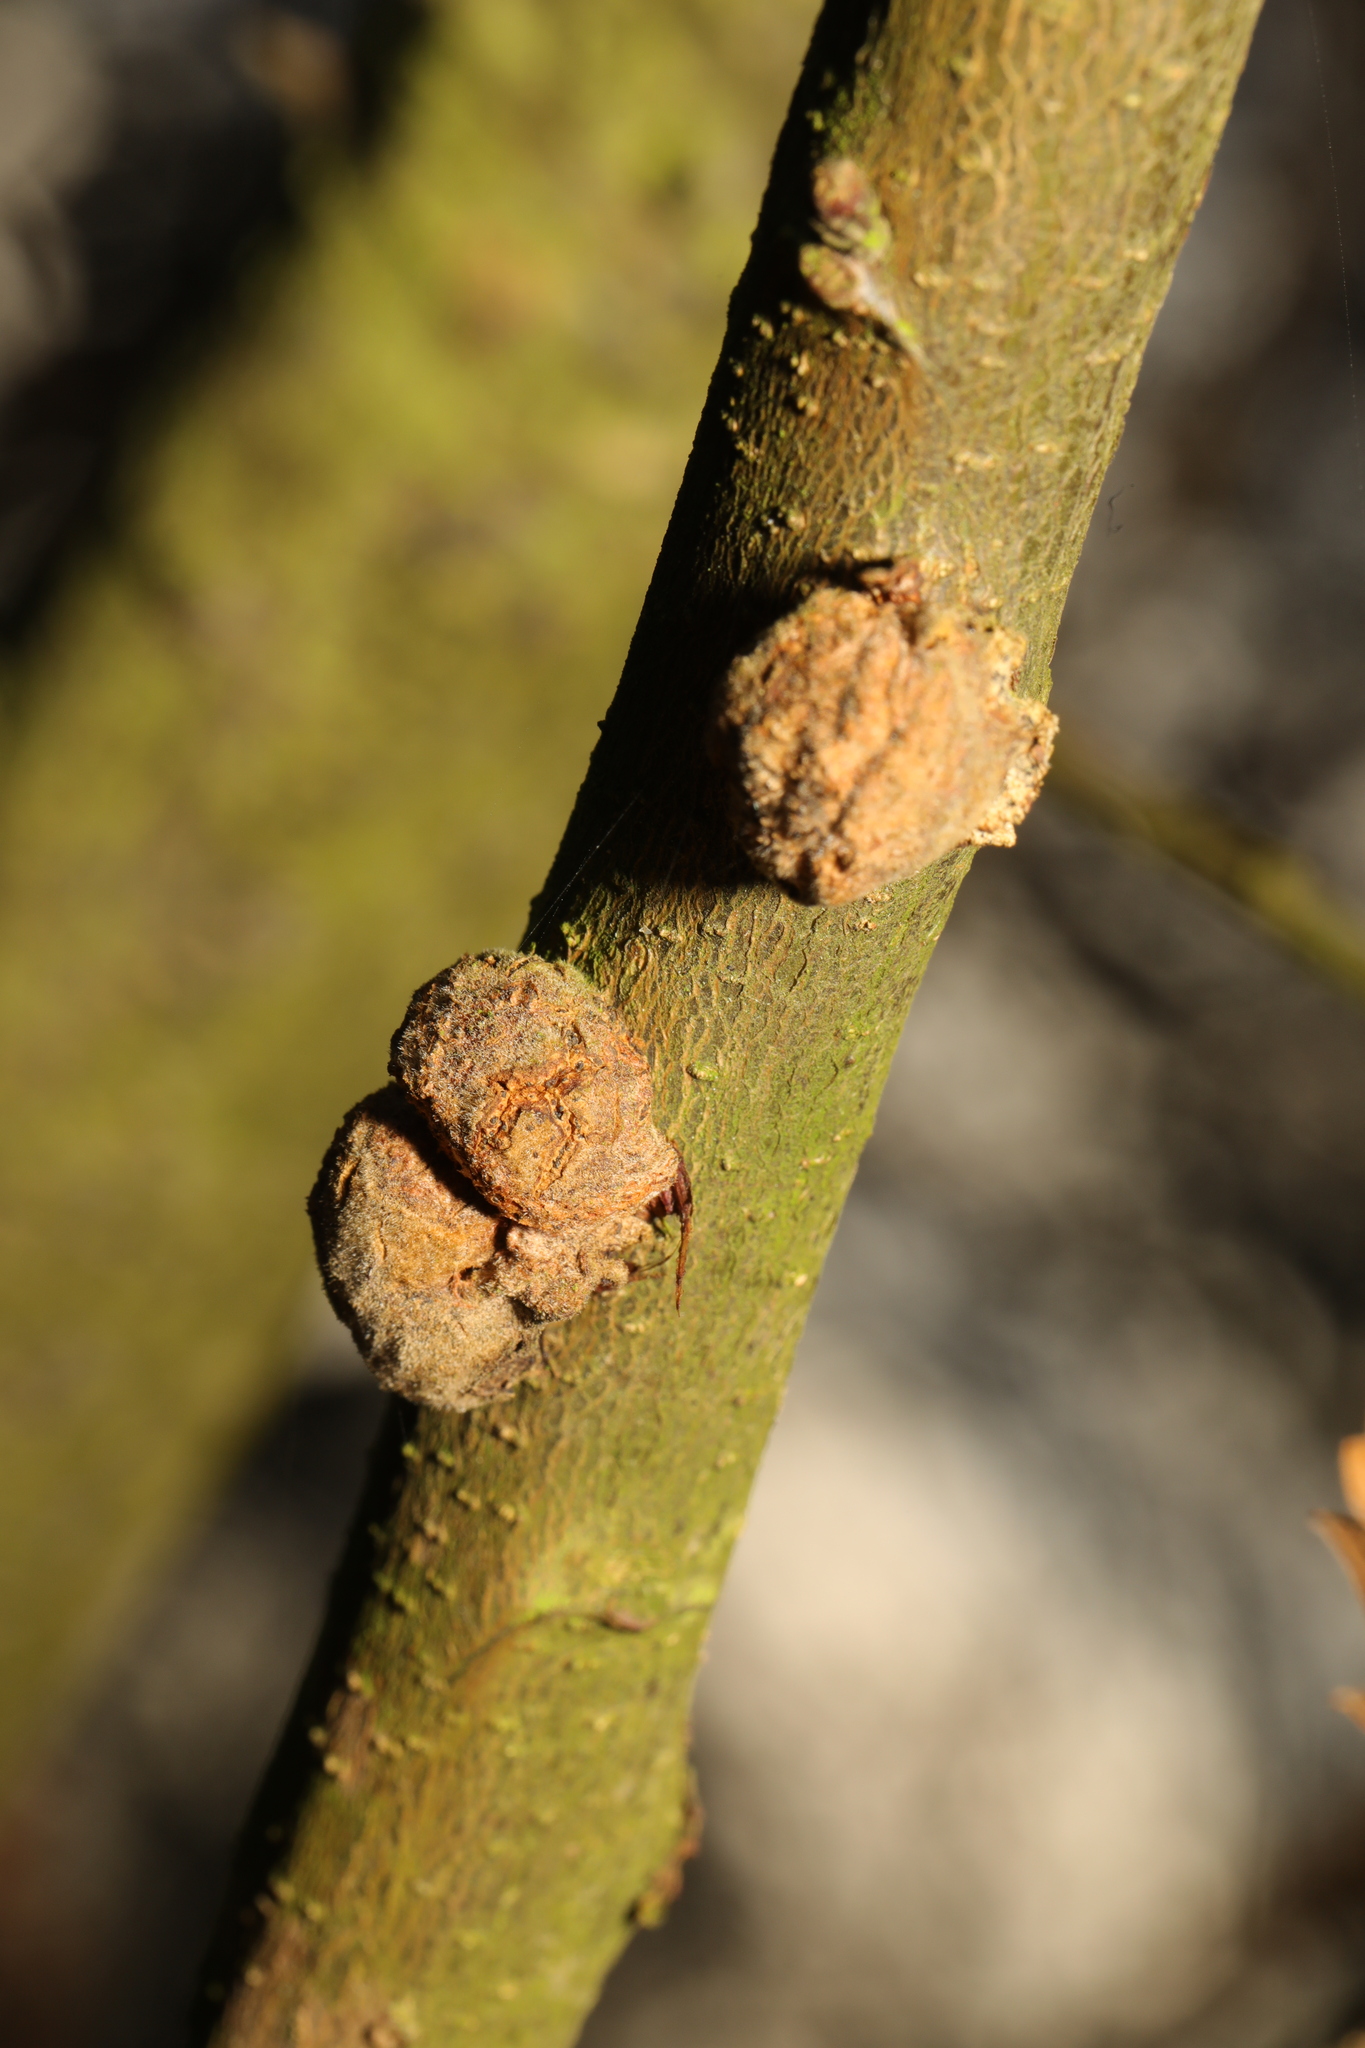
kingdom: Animalia
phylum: Arthropoda
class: Insecta
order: Hymenoptera
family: Cynipidae
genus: Aphelonyx
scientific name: Aphelonyx cerricola
